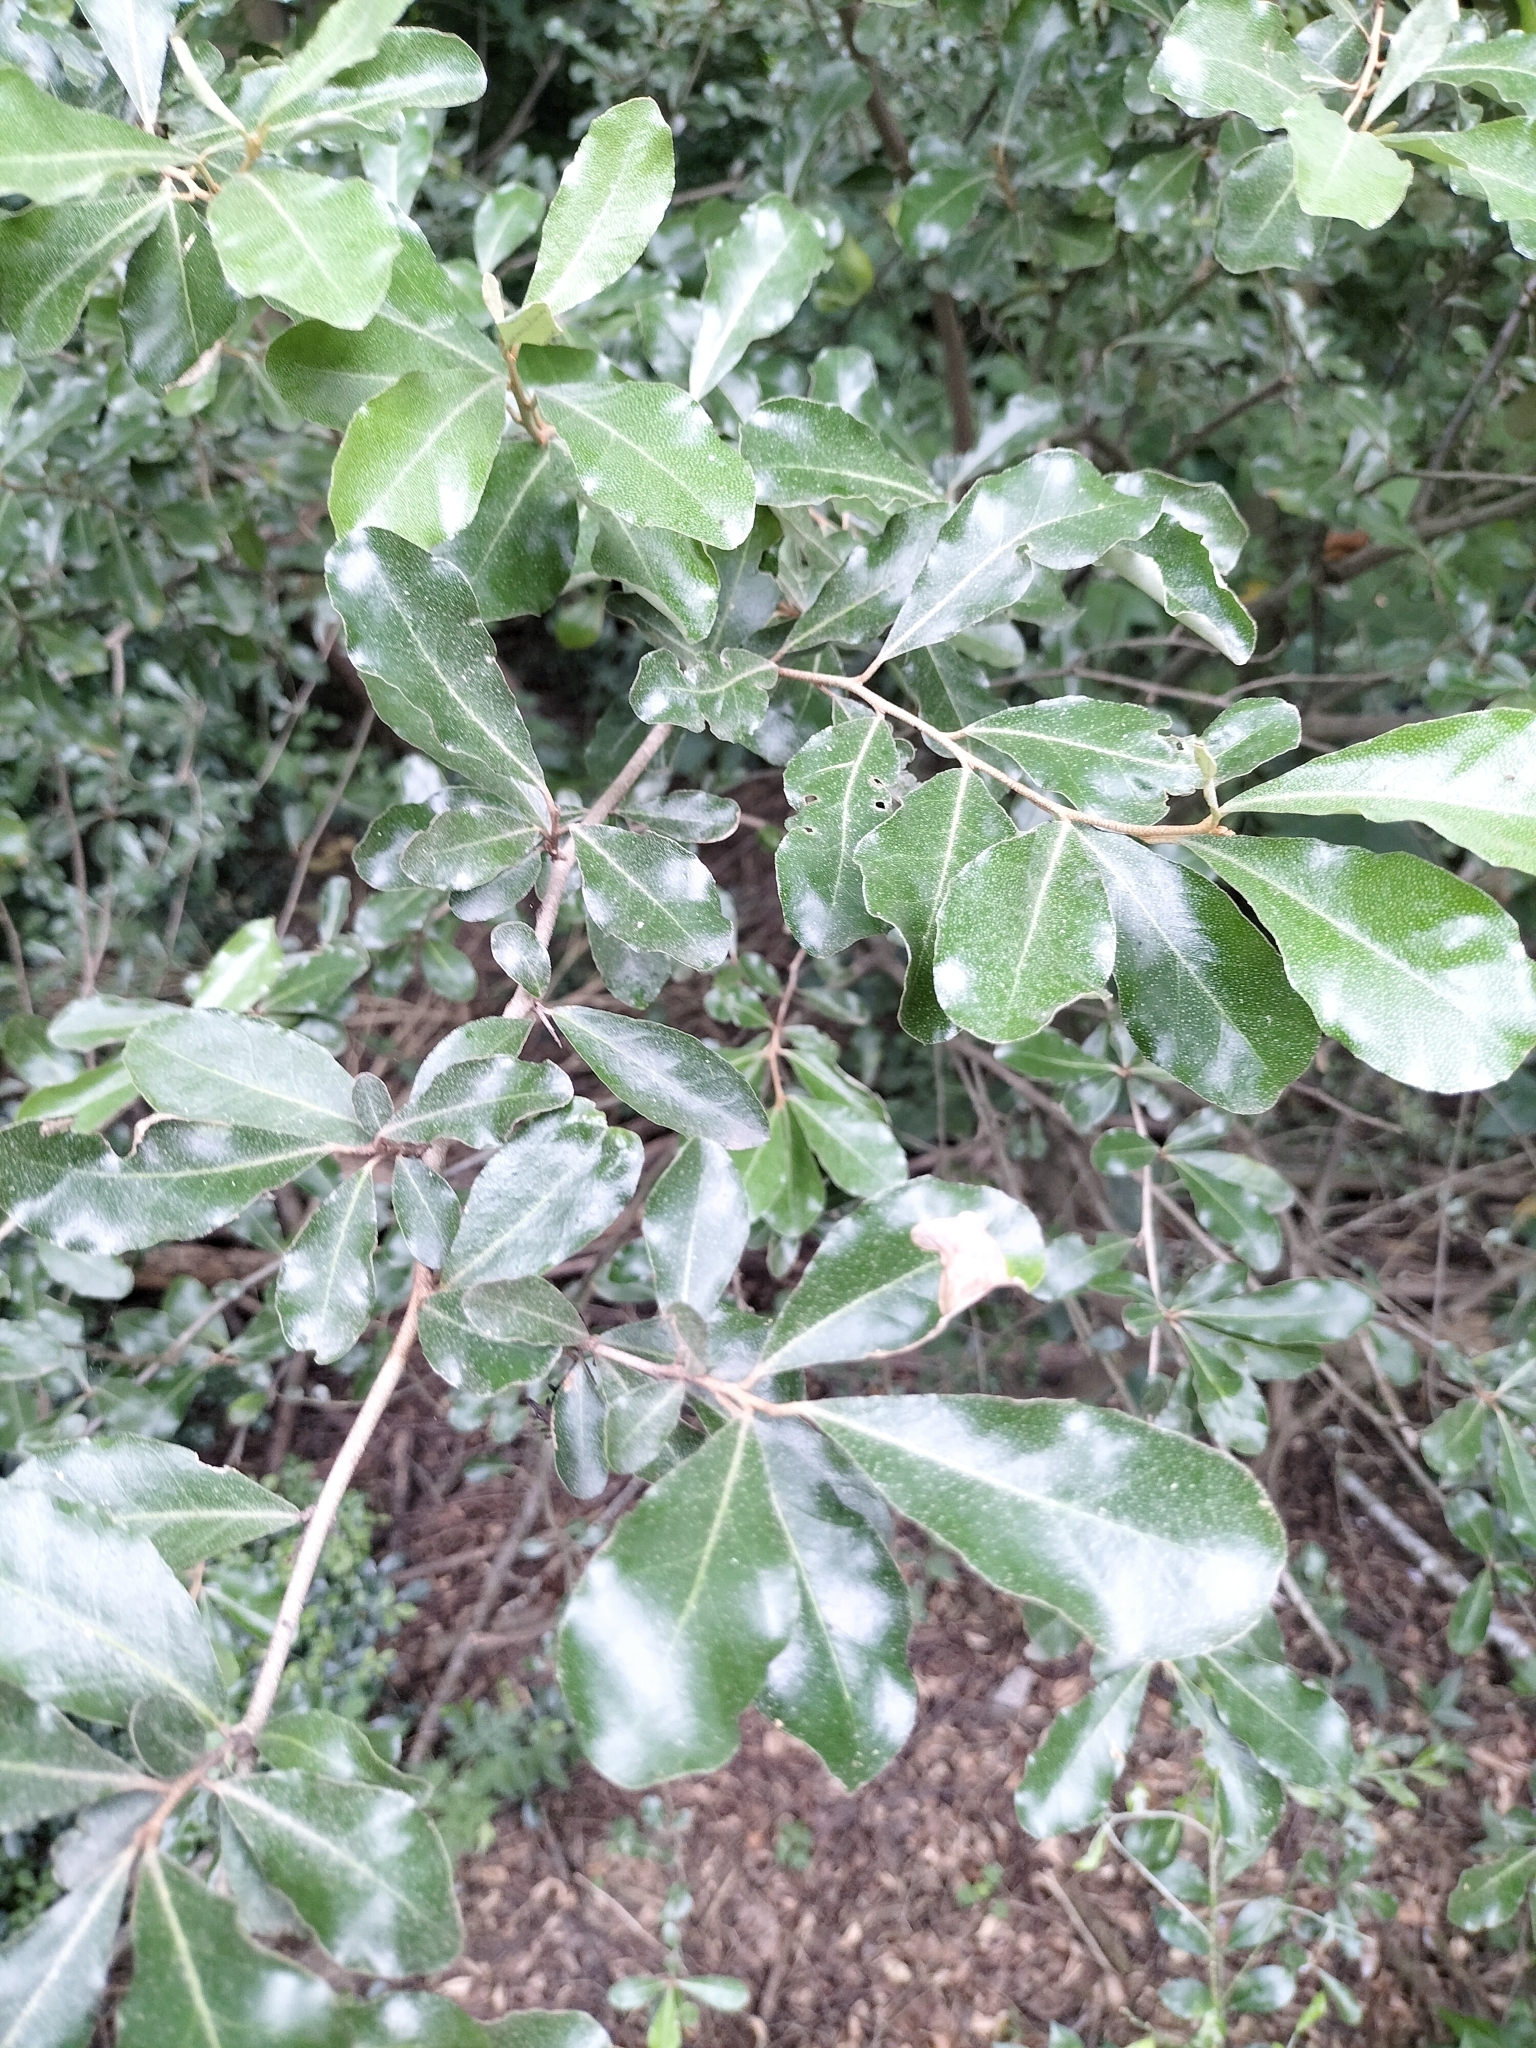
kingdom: Plantae
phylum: Tracheophyta
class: Magnoliopsida
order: Rosales
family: Elaeagnaceae
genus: Elaeagnus
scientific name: Elaeagnus oldhamii
